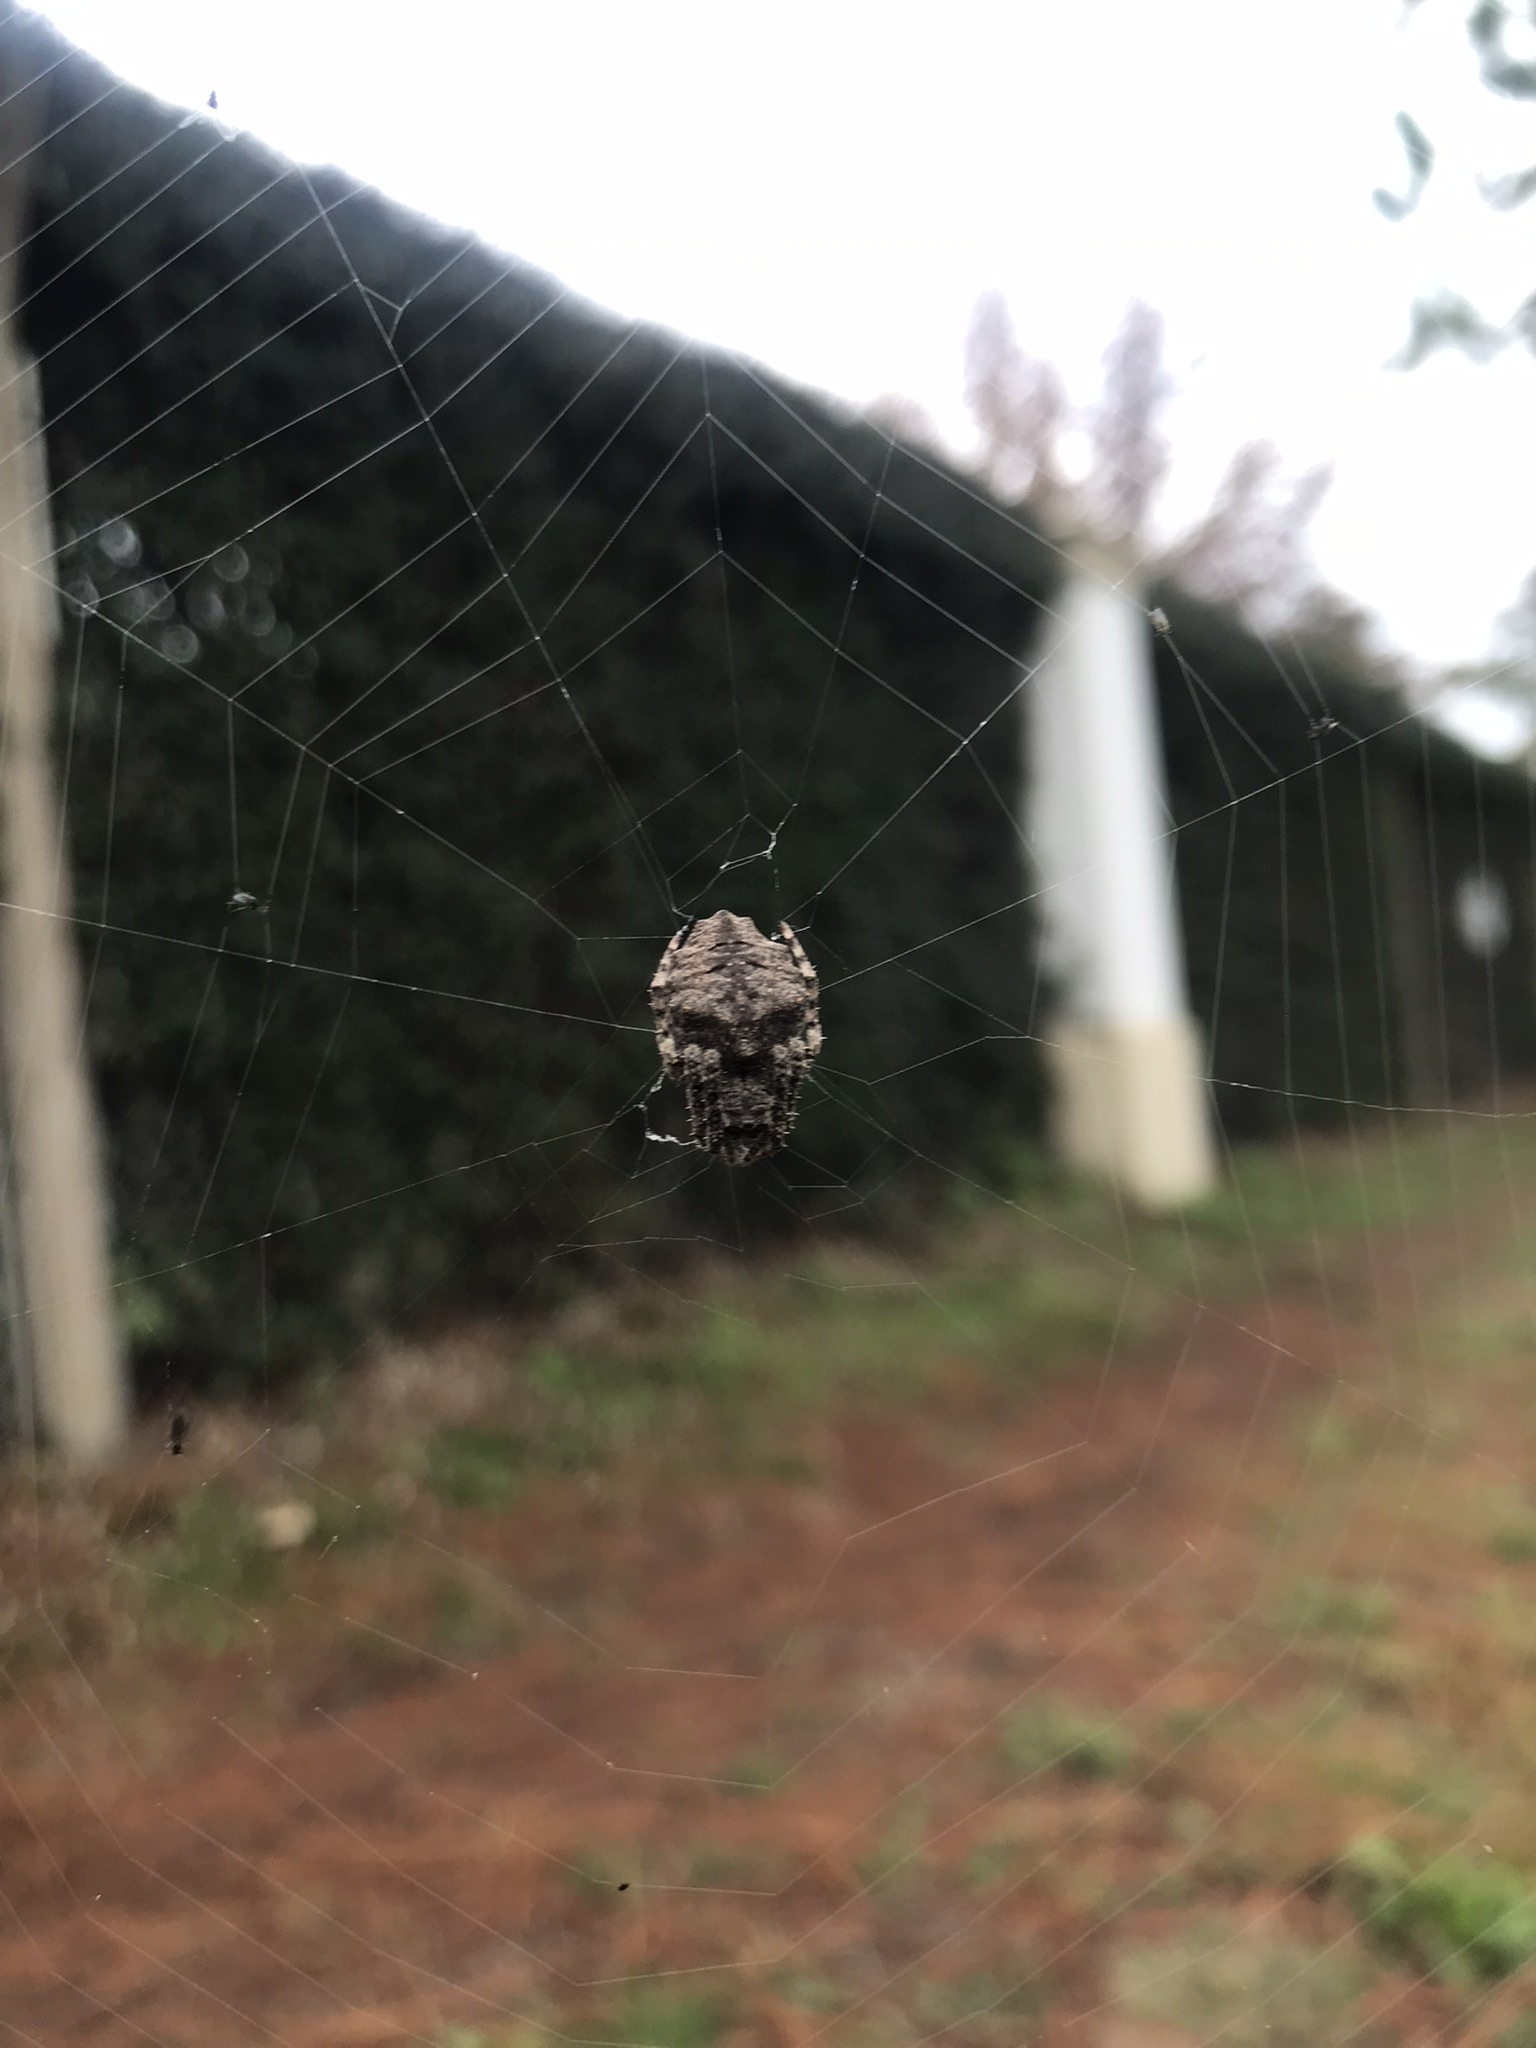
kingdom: Animalia
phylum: Arthropoda
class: Arachnida
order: Araneae
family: Araneidae
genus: Parawixia
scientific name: Parawixia audax
